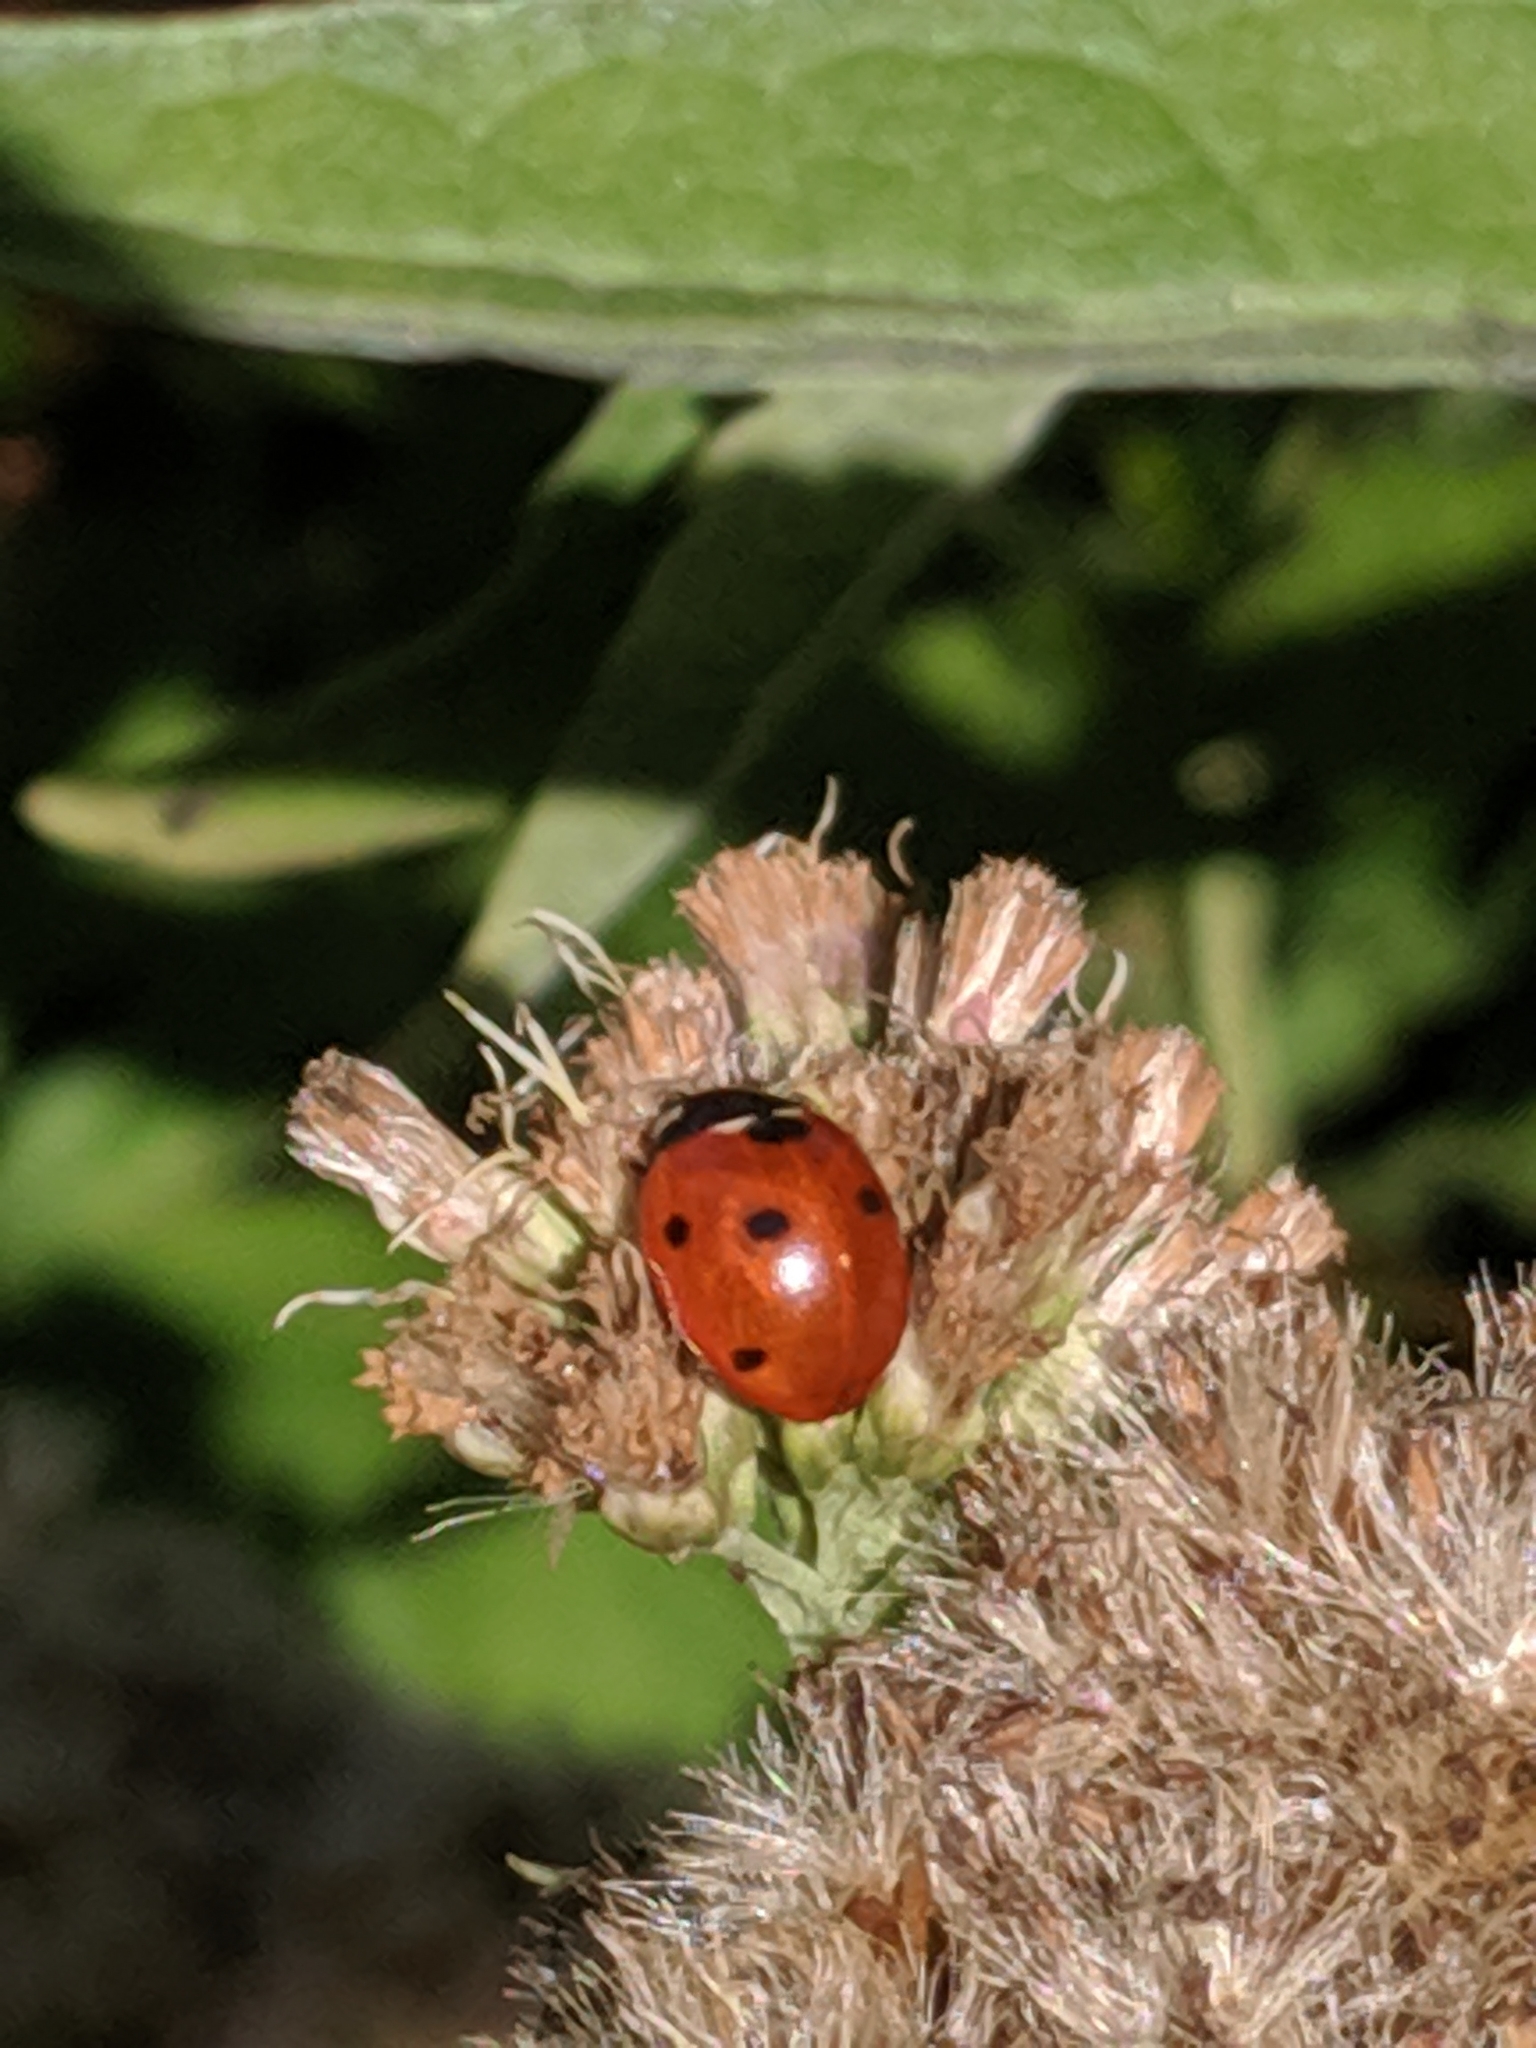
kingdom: Animalia
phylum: Arthropoda
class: Insecta
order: Coleoptera
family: Coccinellidae
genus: Coccinella
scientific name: Coccinella septempunctata
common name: Sevenspotted lady beetle
